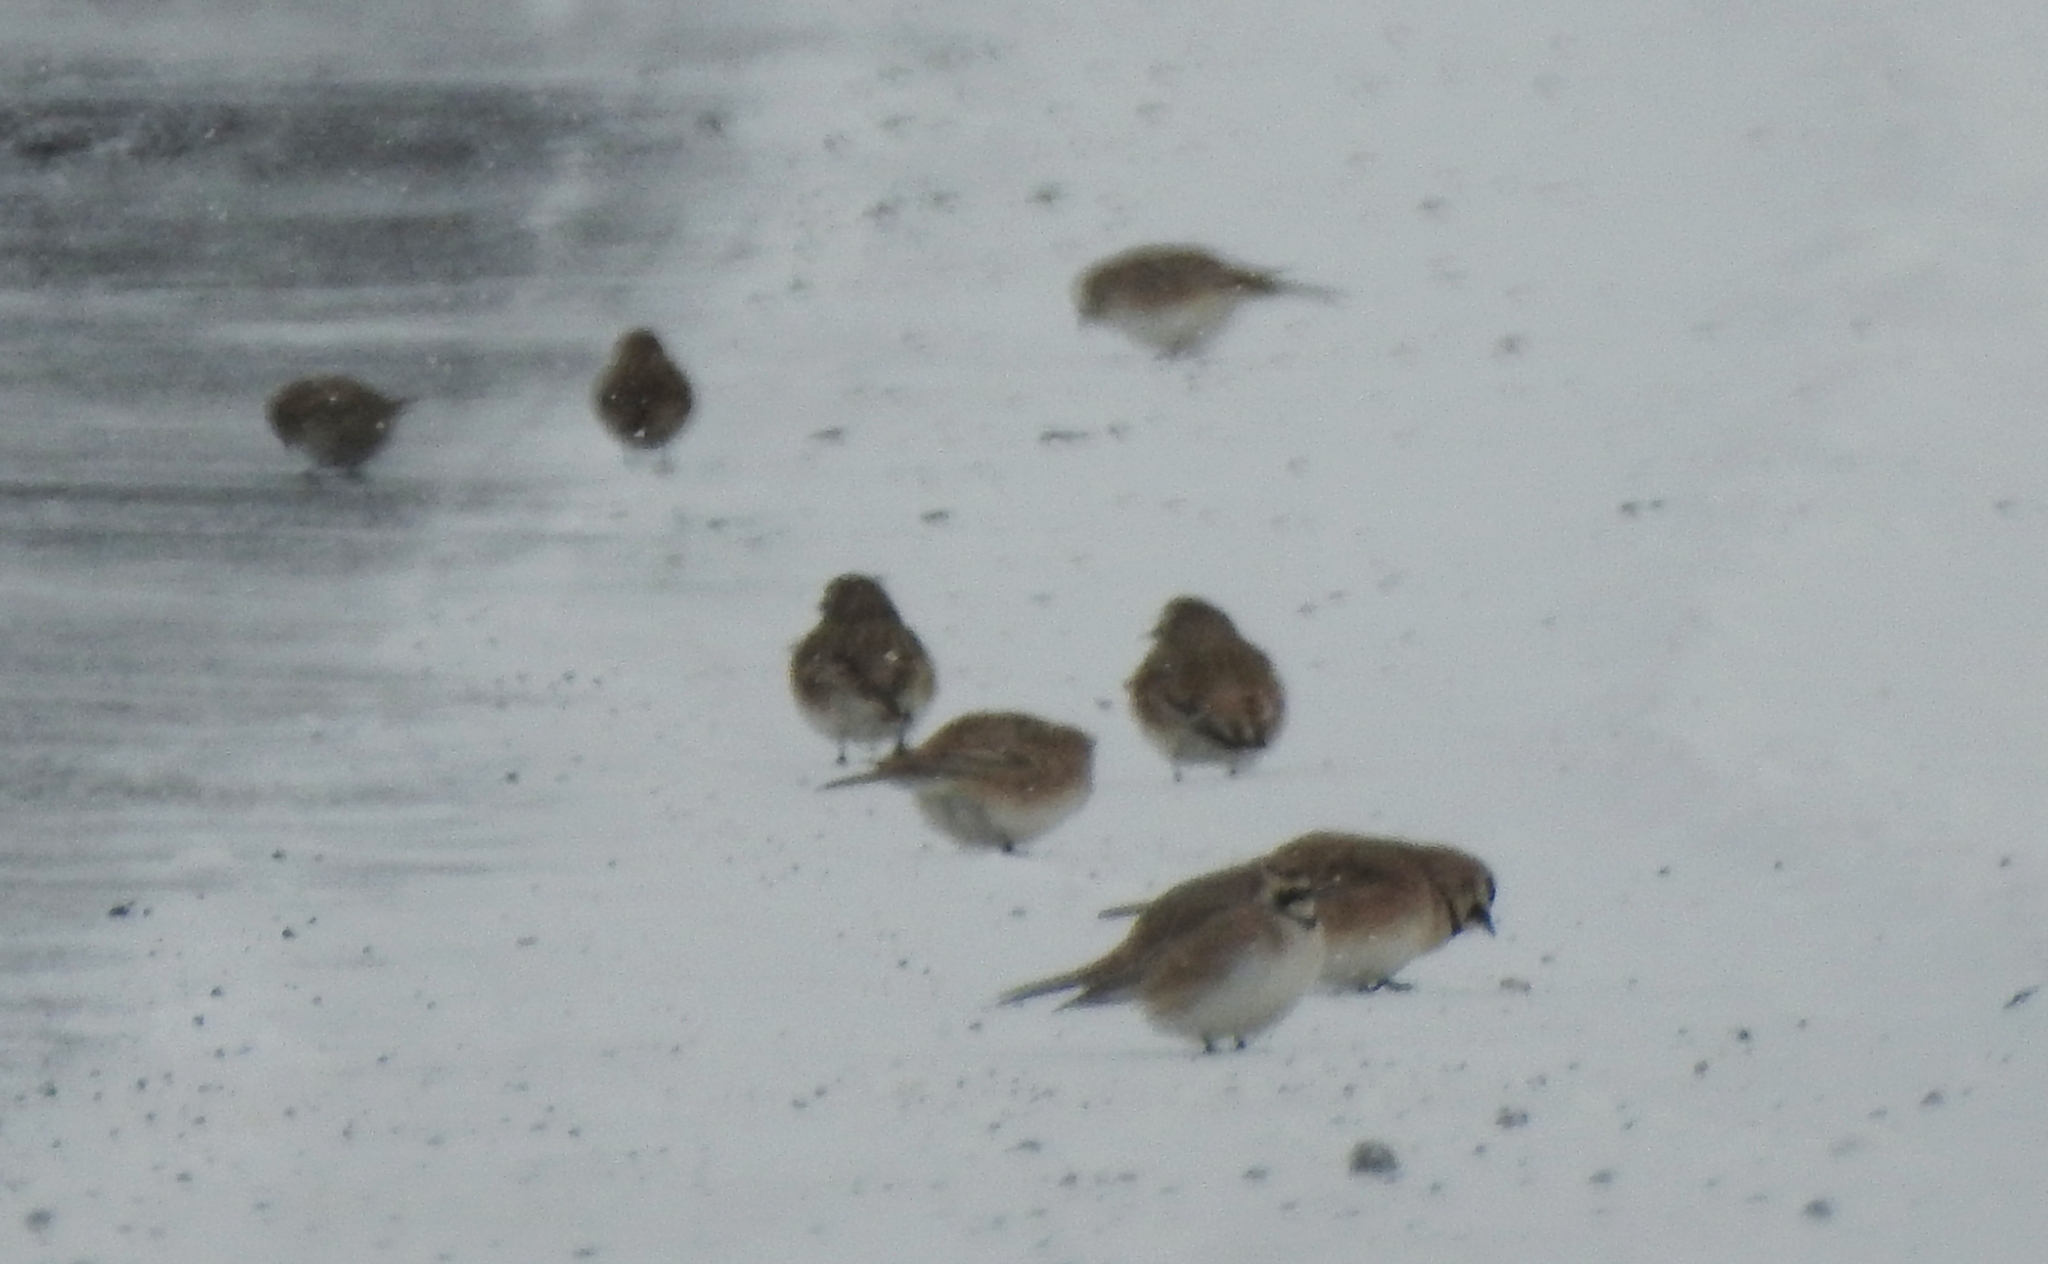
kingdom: Animalia
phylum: Chordata
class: Aves
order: Passeriformes
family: Alaudidae
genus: Eremophila
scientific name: Eremophila alpestris
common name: Horned lark
